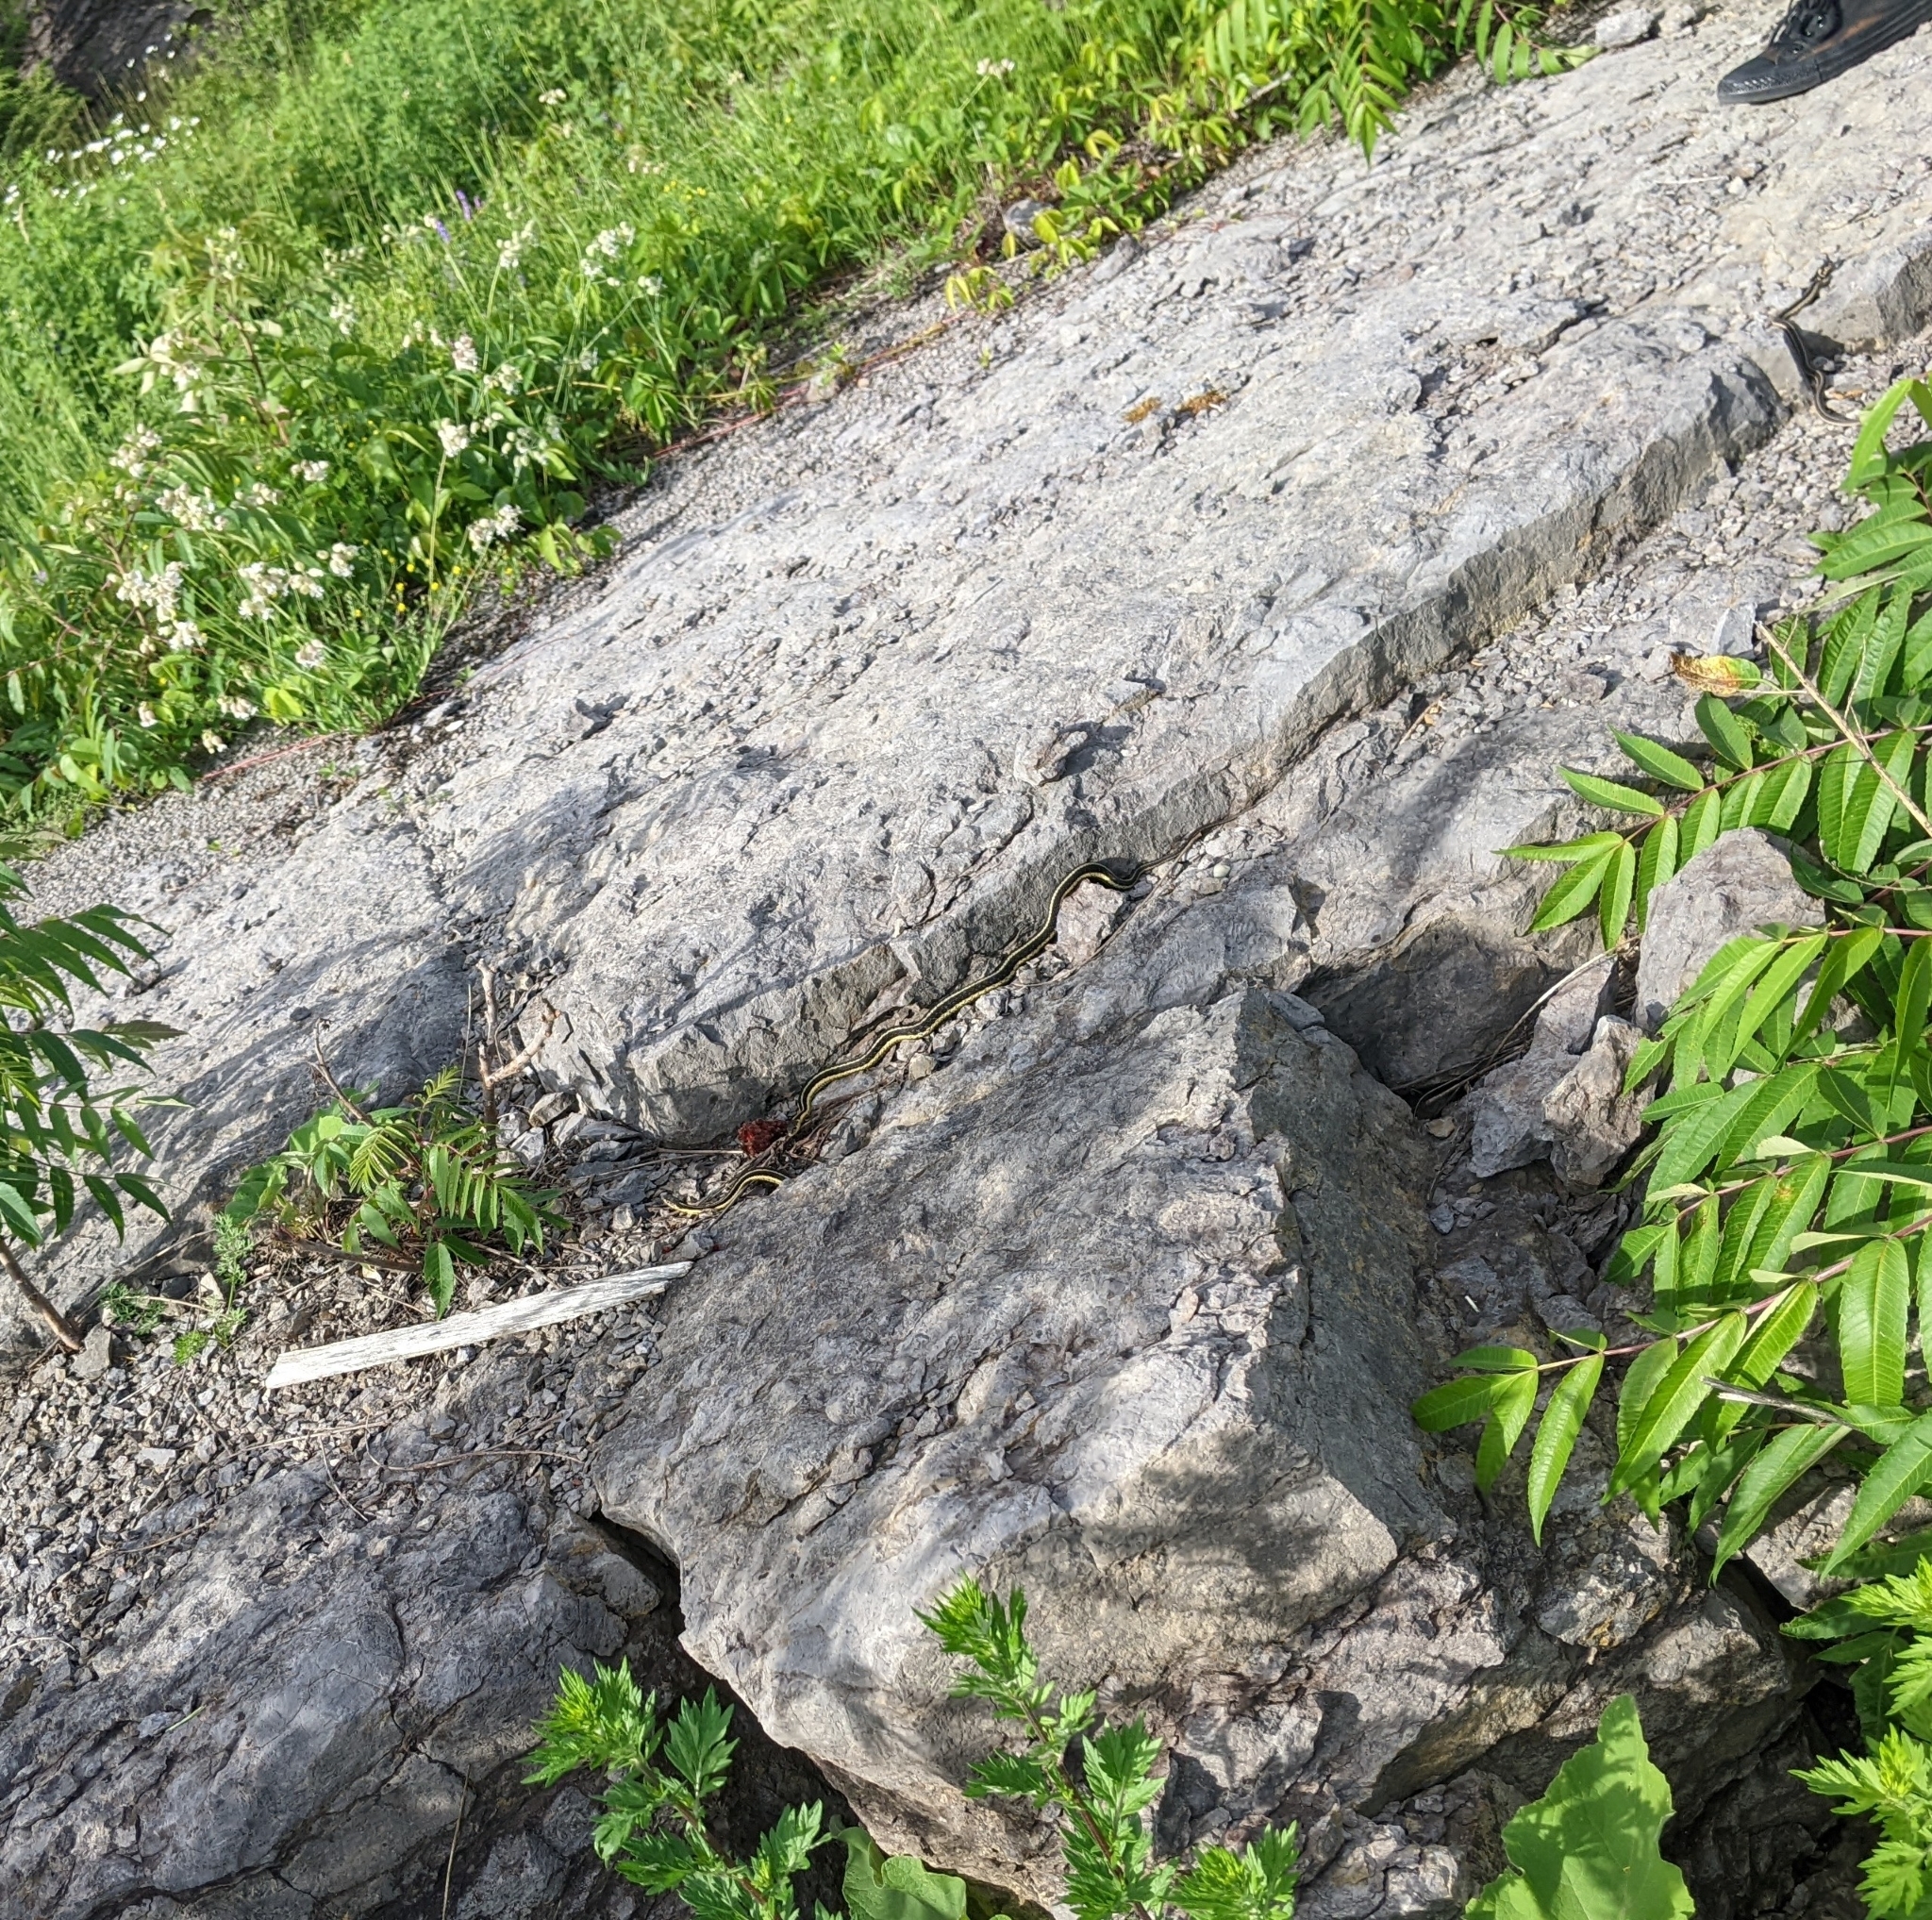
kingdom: Animalia
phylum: Chordata
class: Squamata
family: Colubridae
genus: Thamnophis
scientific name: Thamnophis sirtalis
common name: Common garter snake
